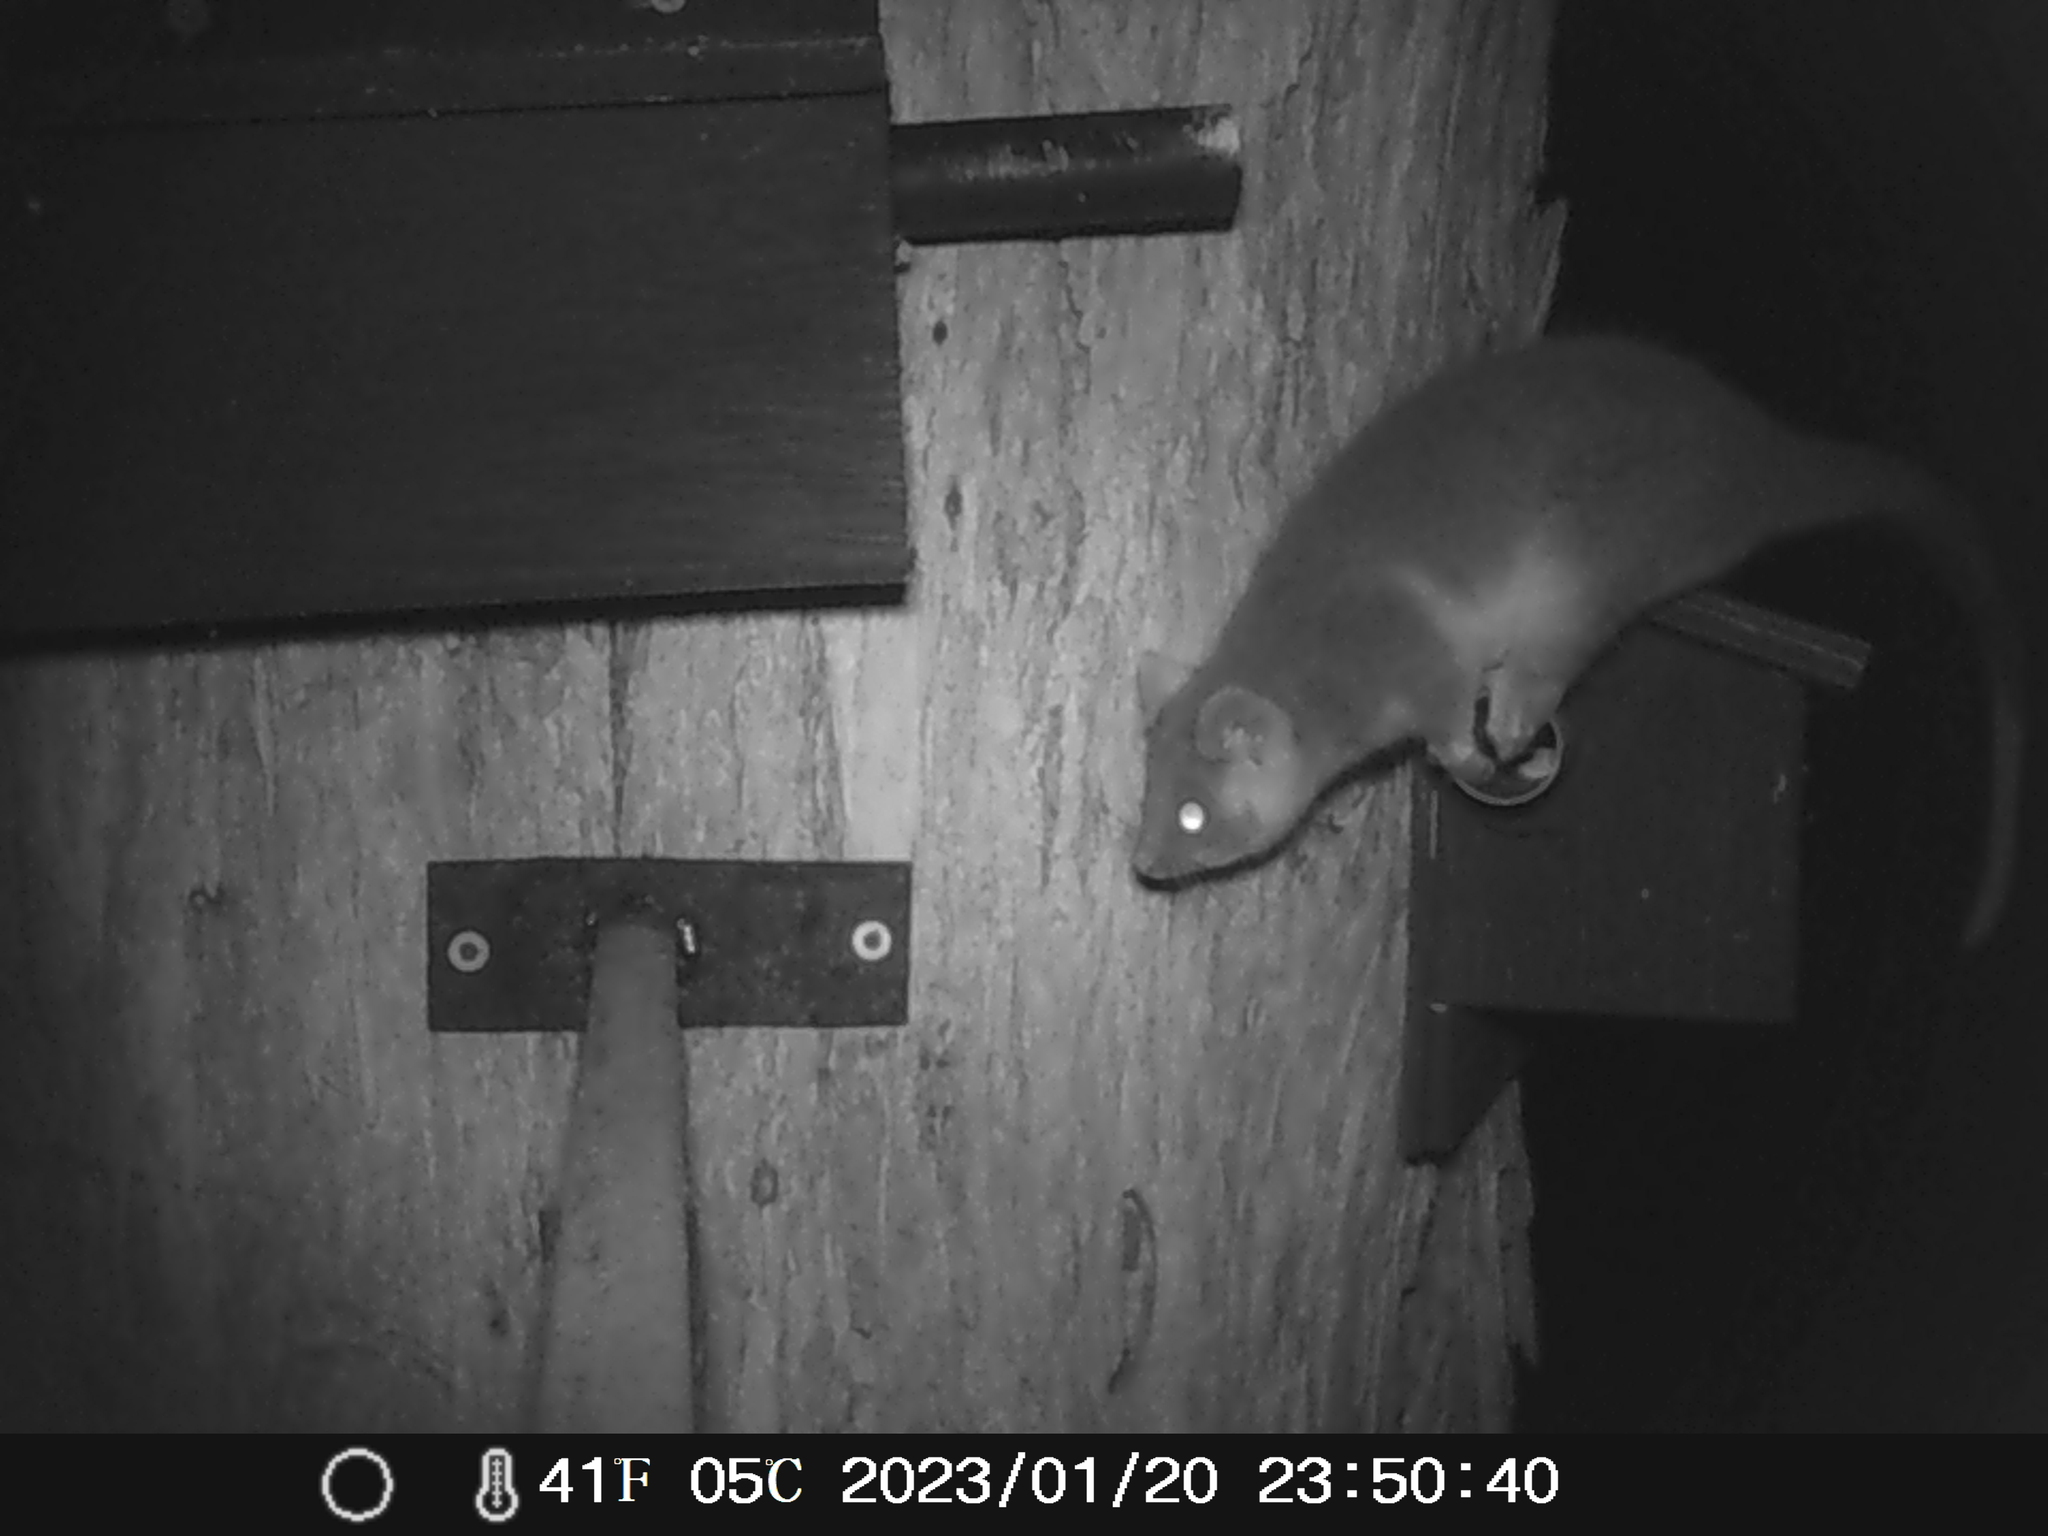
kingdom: Animalia
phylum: Chordata
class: Mammalia
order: Diprotodontia
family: Pseudocheiridae
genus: Pseudocheirus
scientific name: Pseudocheirus peregrinus
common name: Common ringtail possum
